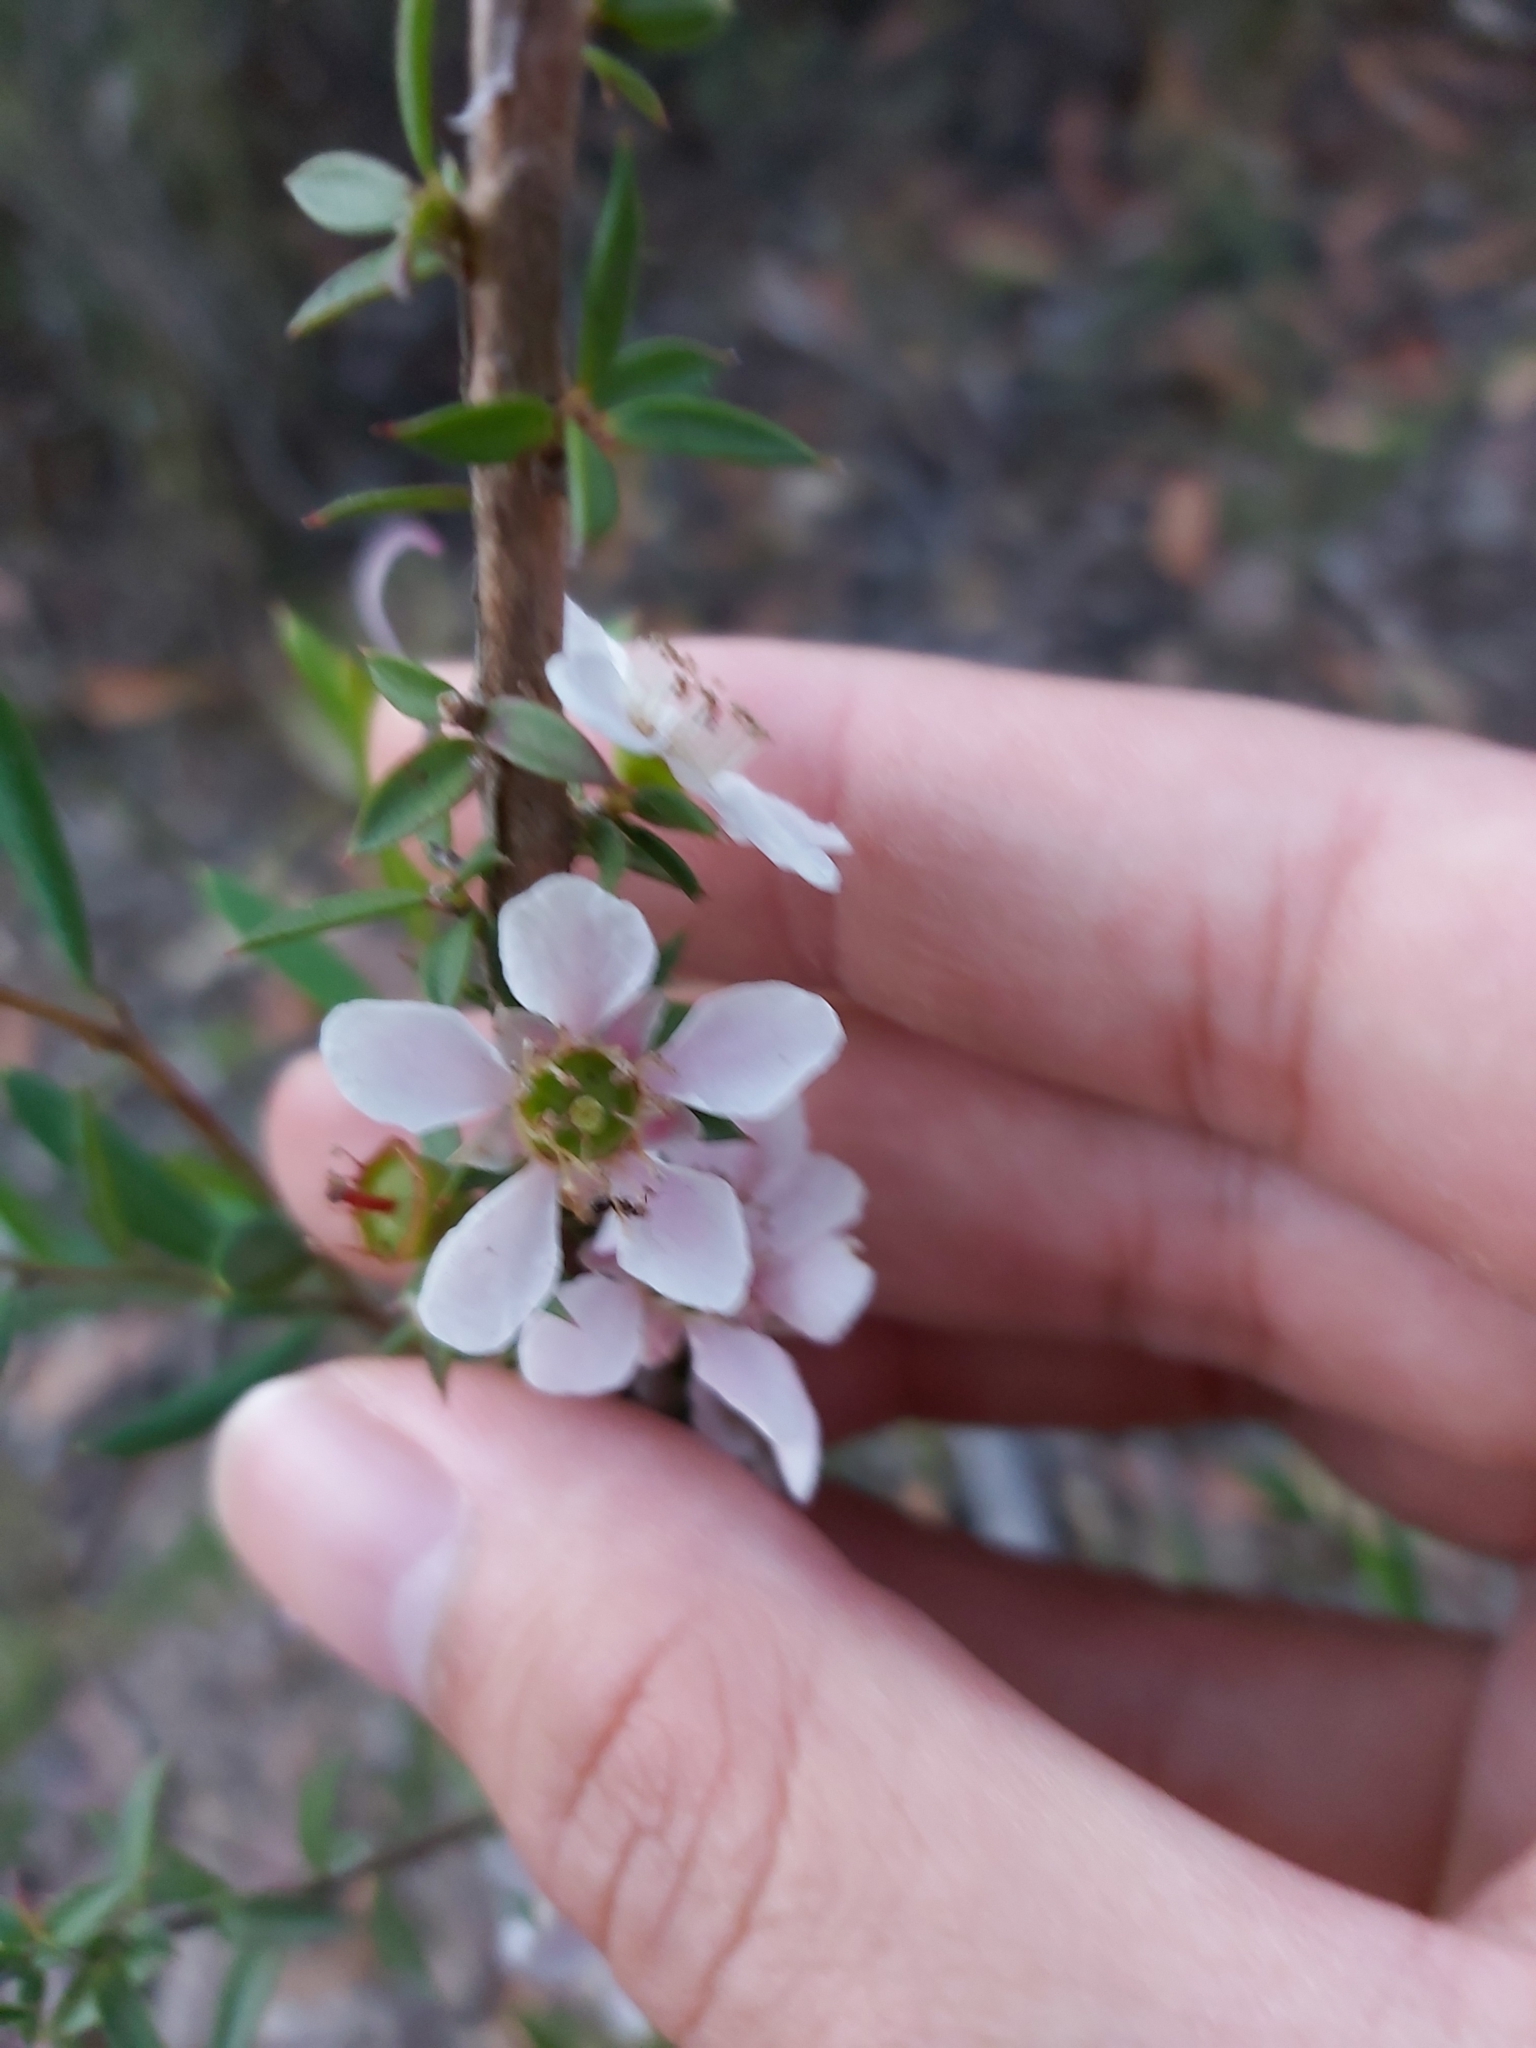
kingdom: Plantae
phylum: Tracheophyta
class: Magnoliopsida
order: Myrtales
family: Myrtaceae
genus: Leptospermum
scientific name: Leptospermum squarrosum
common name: Peach-blossom teatree
